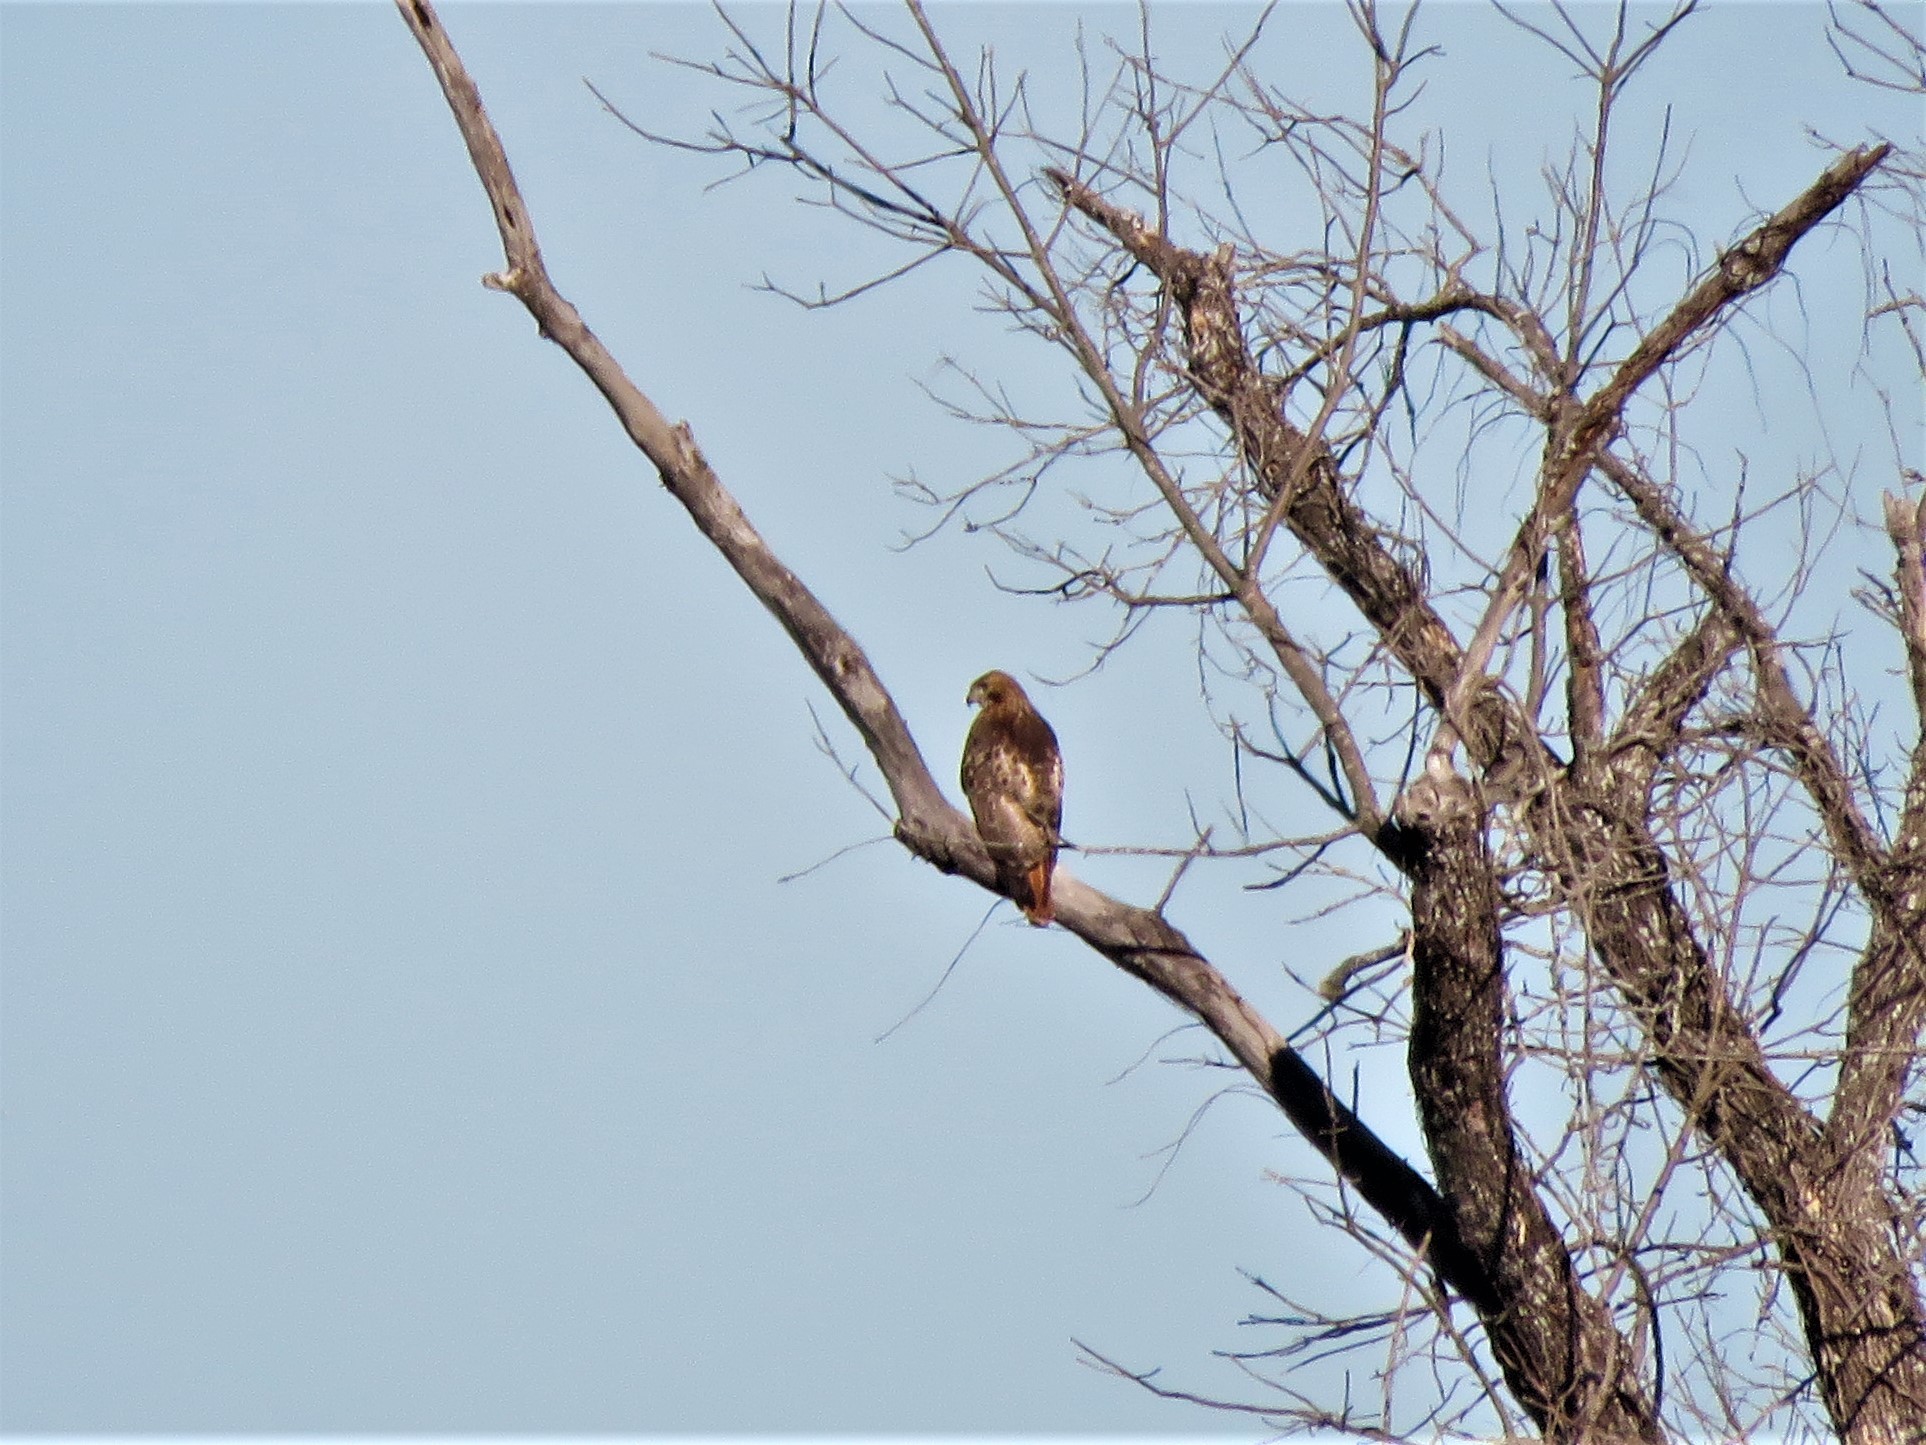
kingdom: Animalia
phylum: Chordata
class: Aves
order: Accipitriformes
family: Accipitridae
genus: Buteo
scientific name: Buteo jamaicensis
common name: Red-tailed hawk
